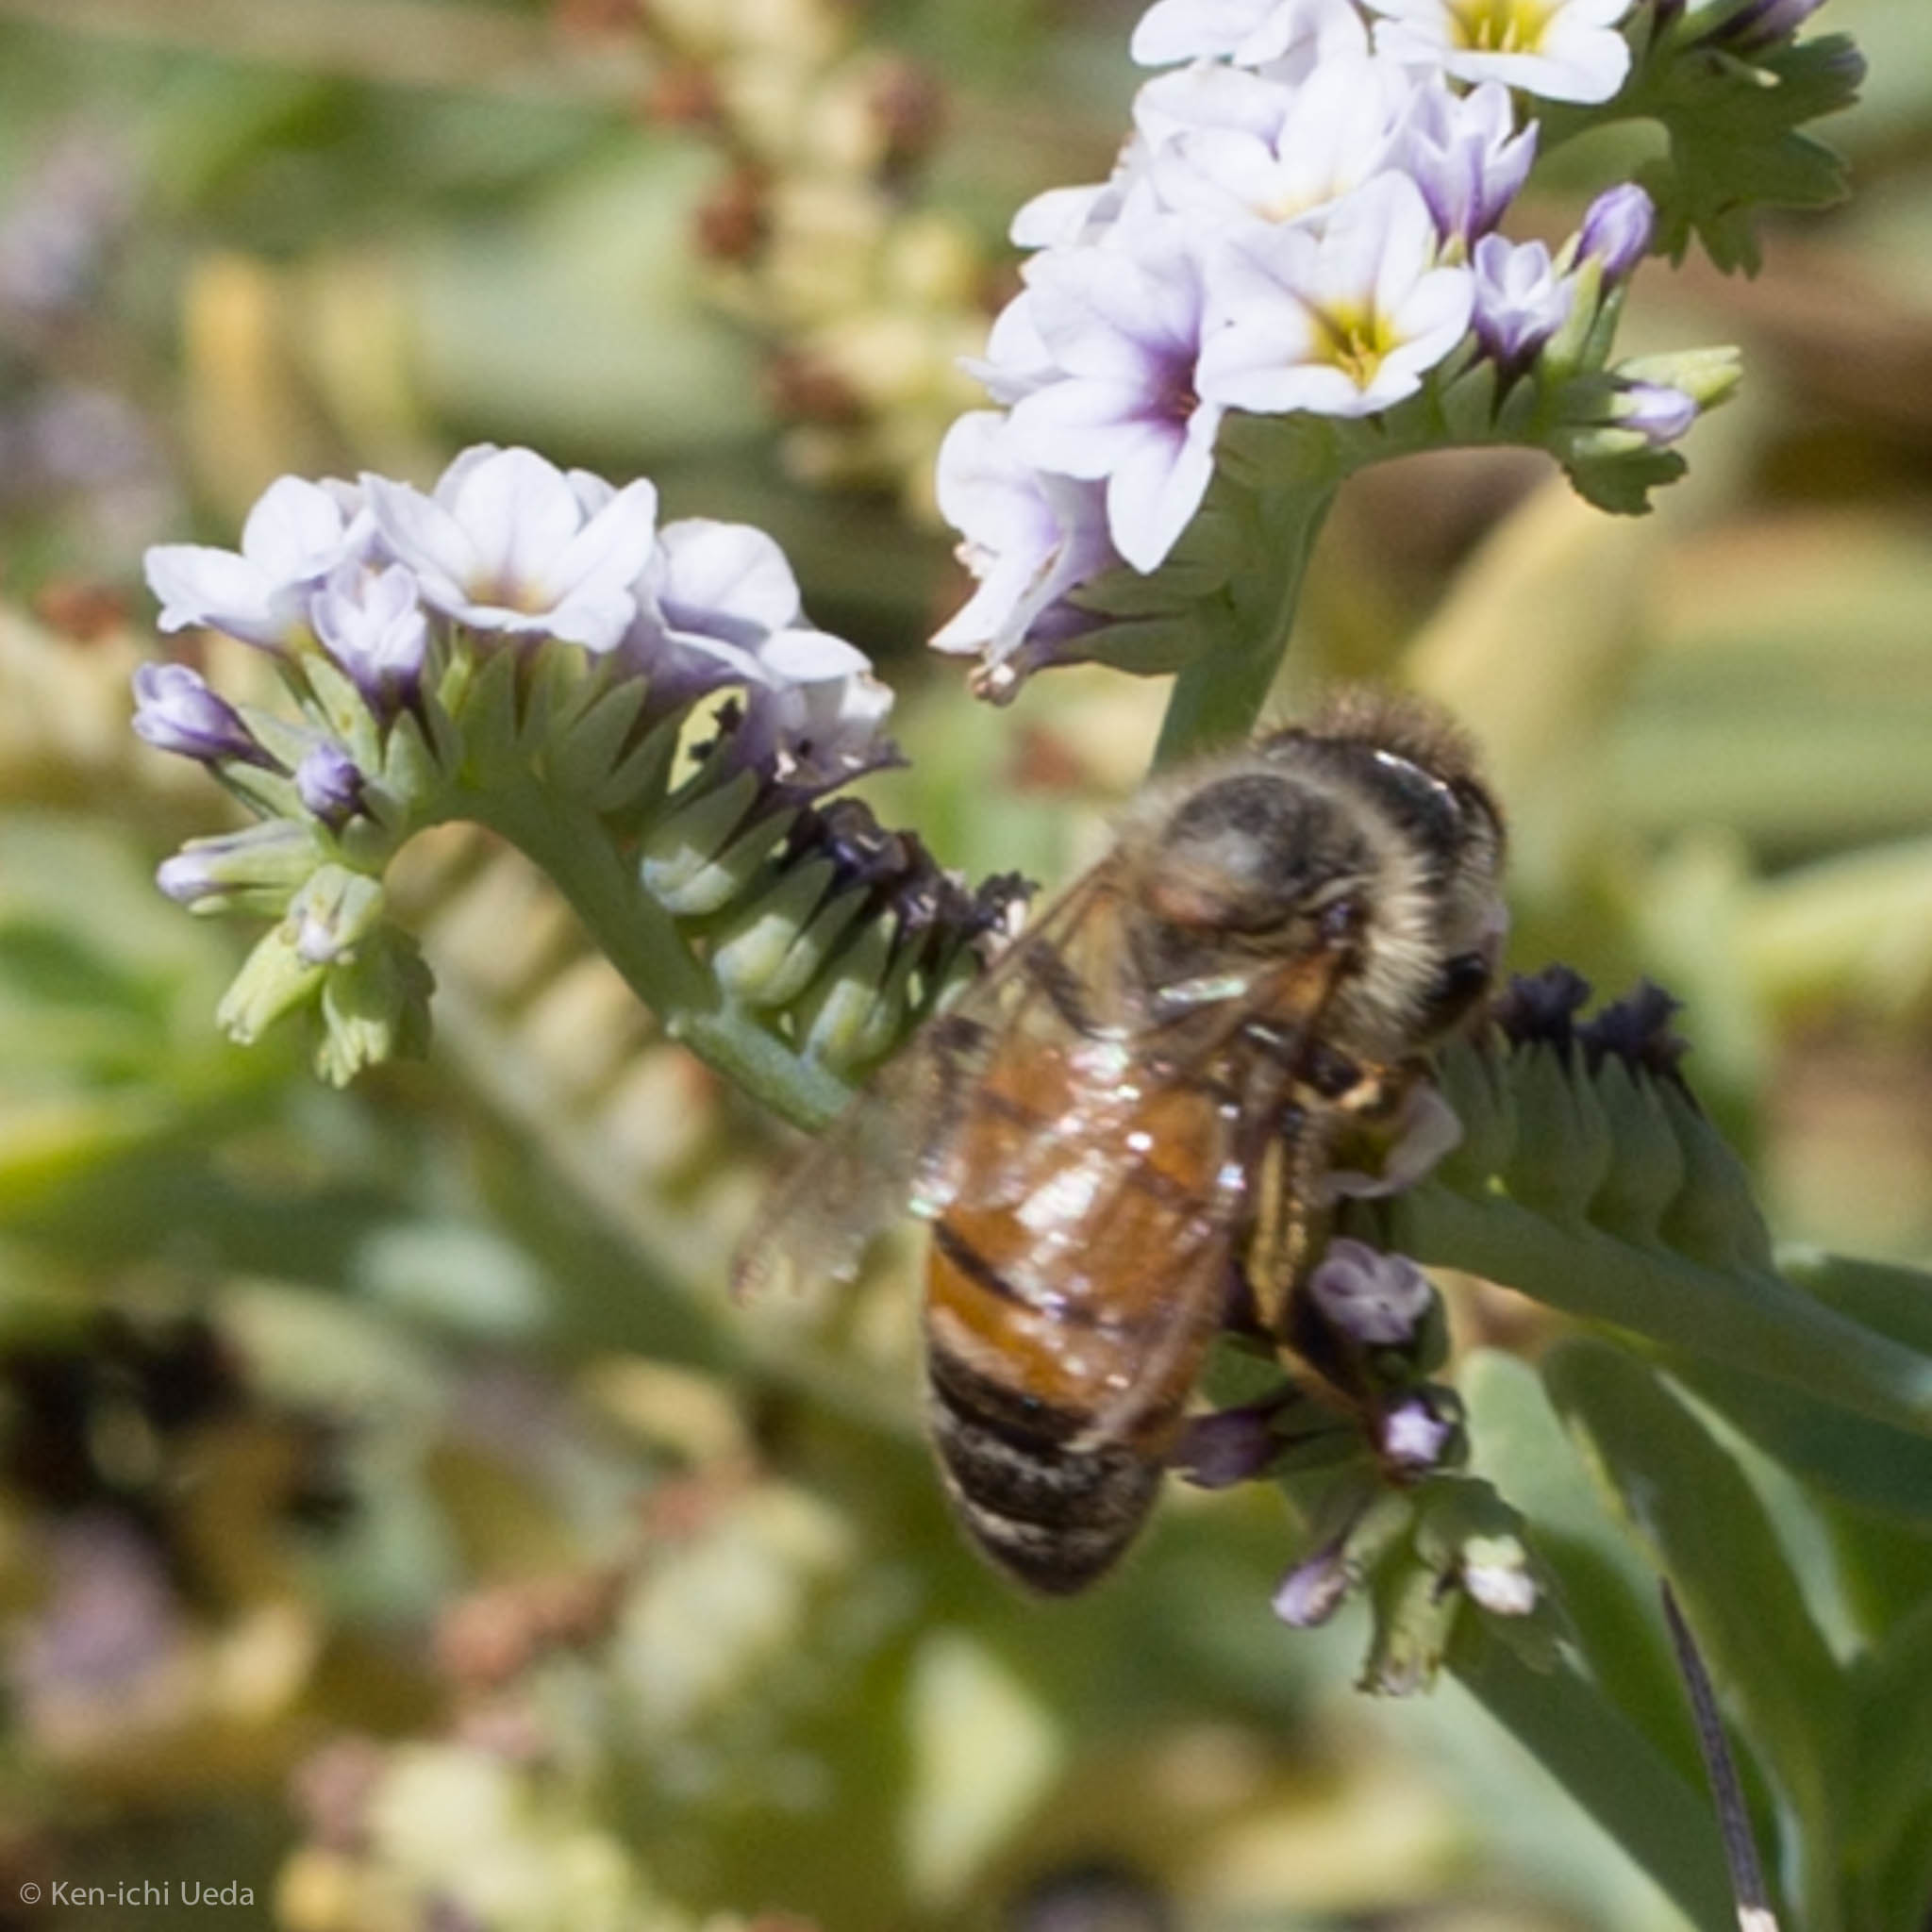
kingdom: Animalia
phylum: Arthropoda
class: Insecta
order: Hymenoptera
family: Apidae
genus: Apis
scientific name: Apis mellifera
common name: Honey bee
